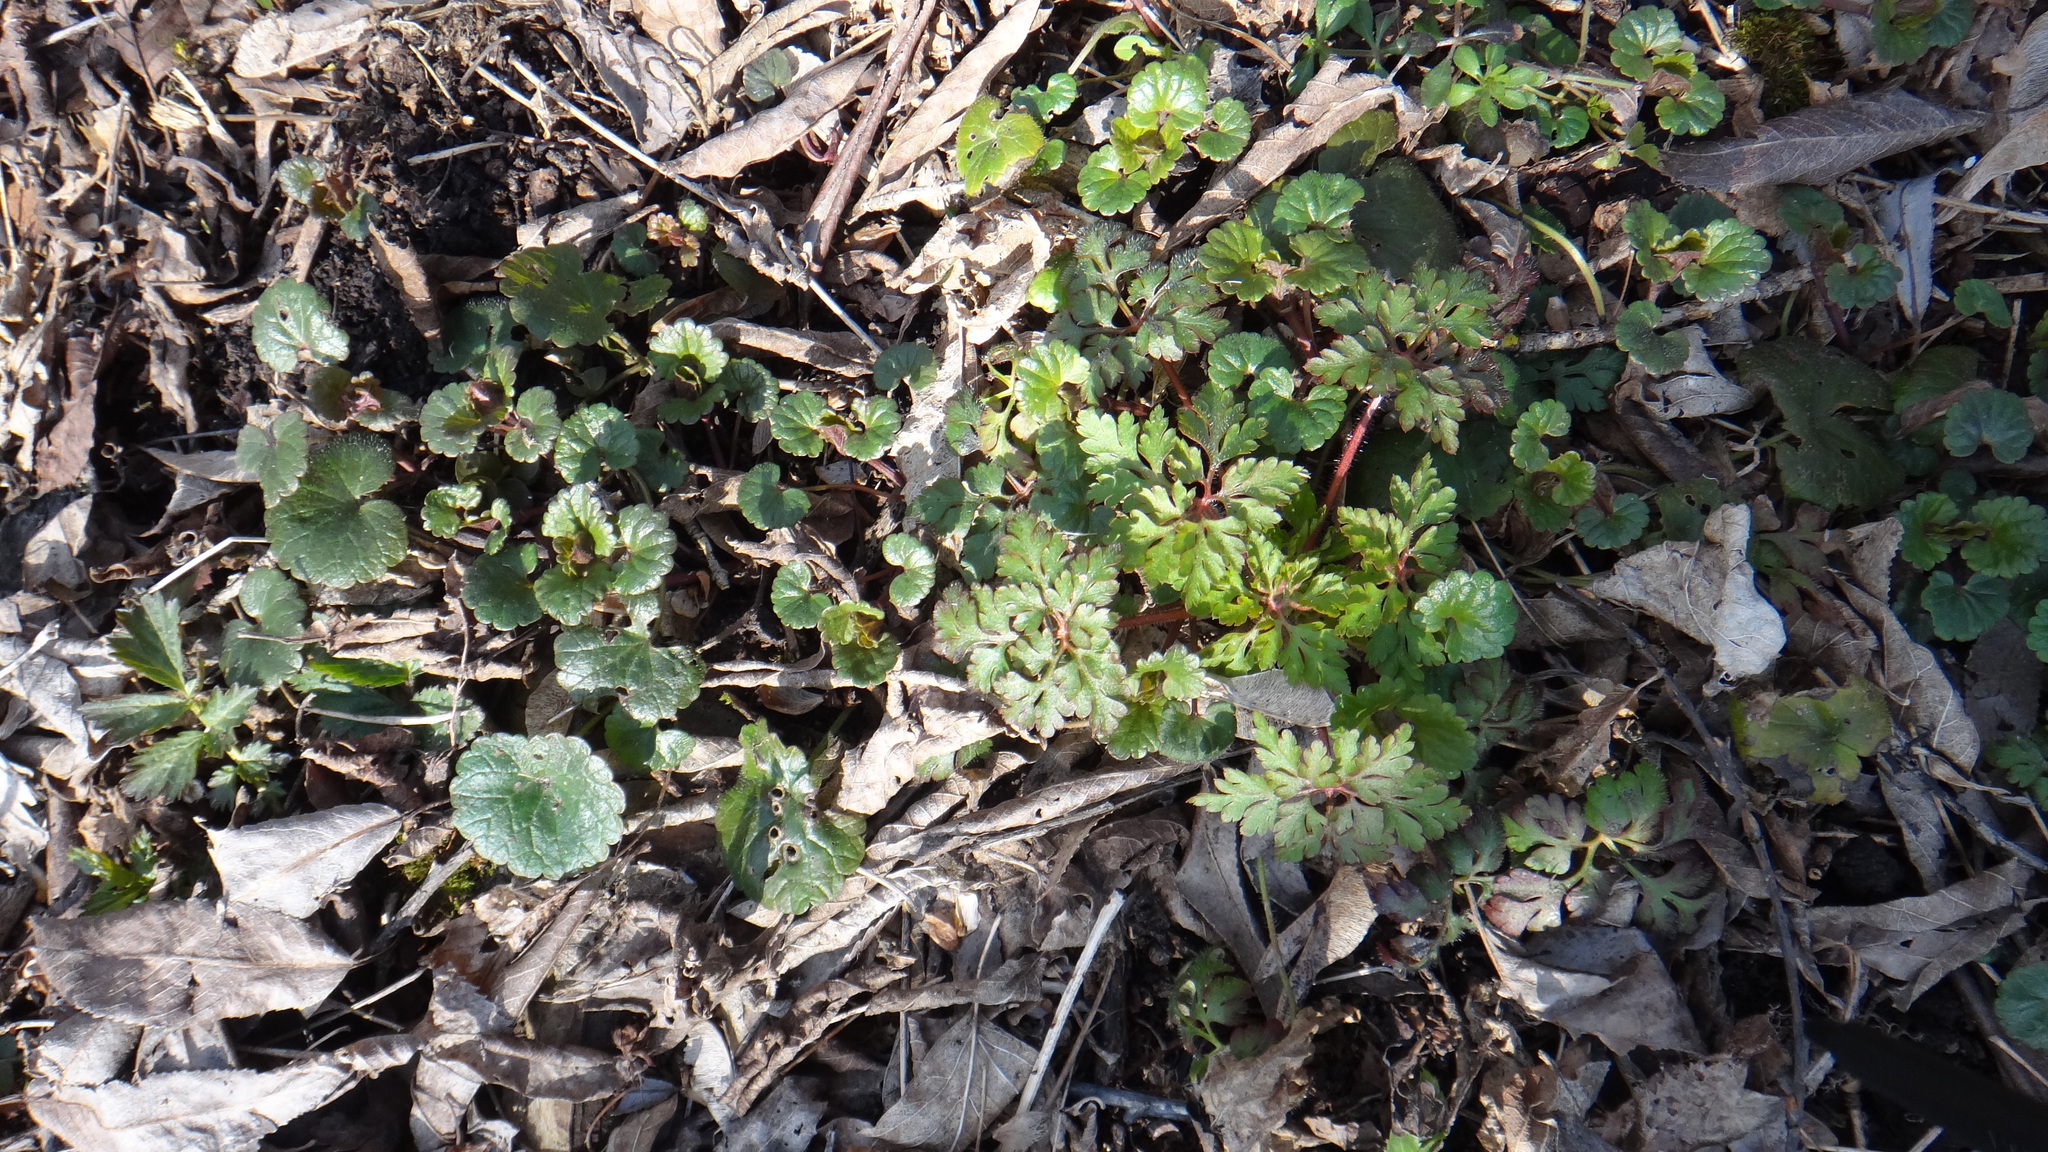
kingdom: Plantae
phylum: Tracheophyta
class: Magnoliopsida
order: Lamiales
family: Lamiaceae
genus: Glechoma
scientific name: Glechoma hederacea
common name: Ground ivy
